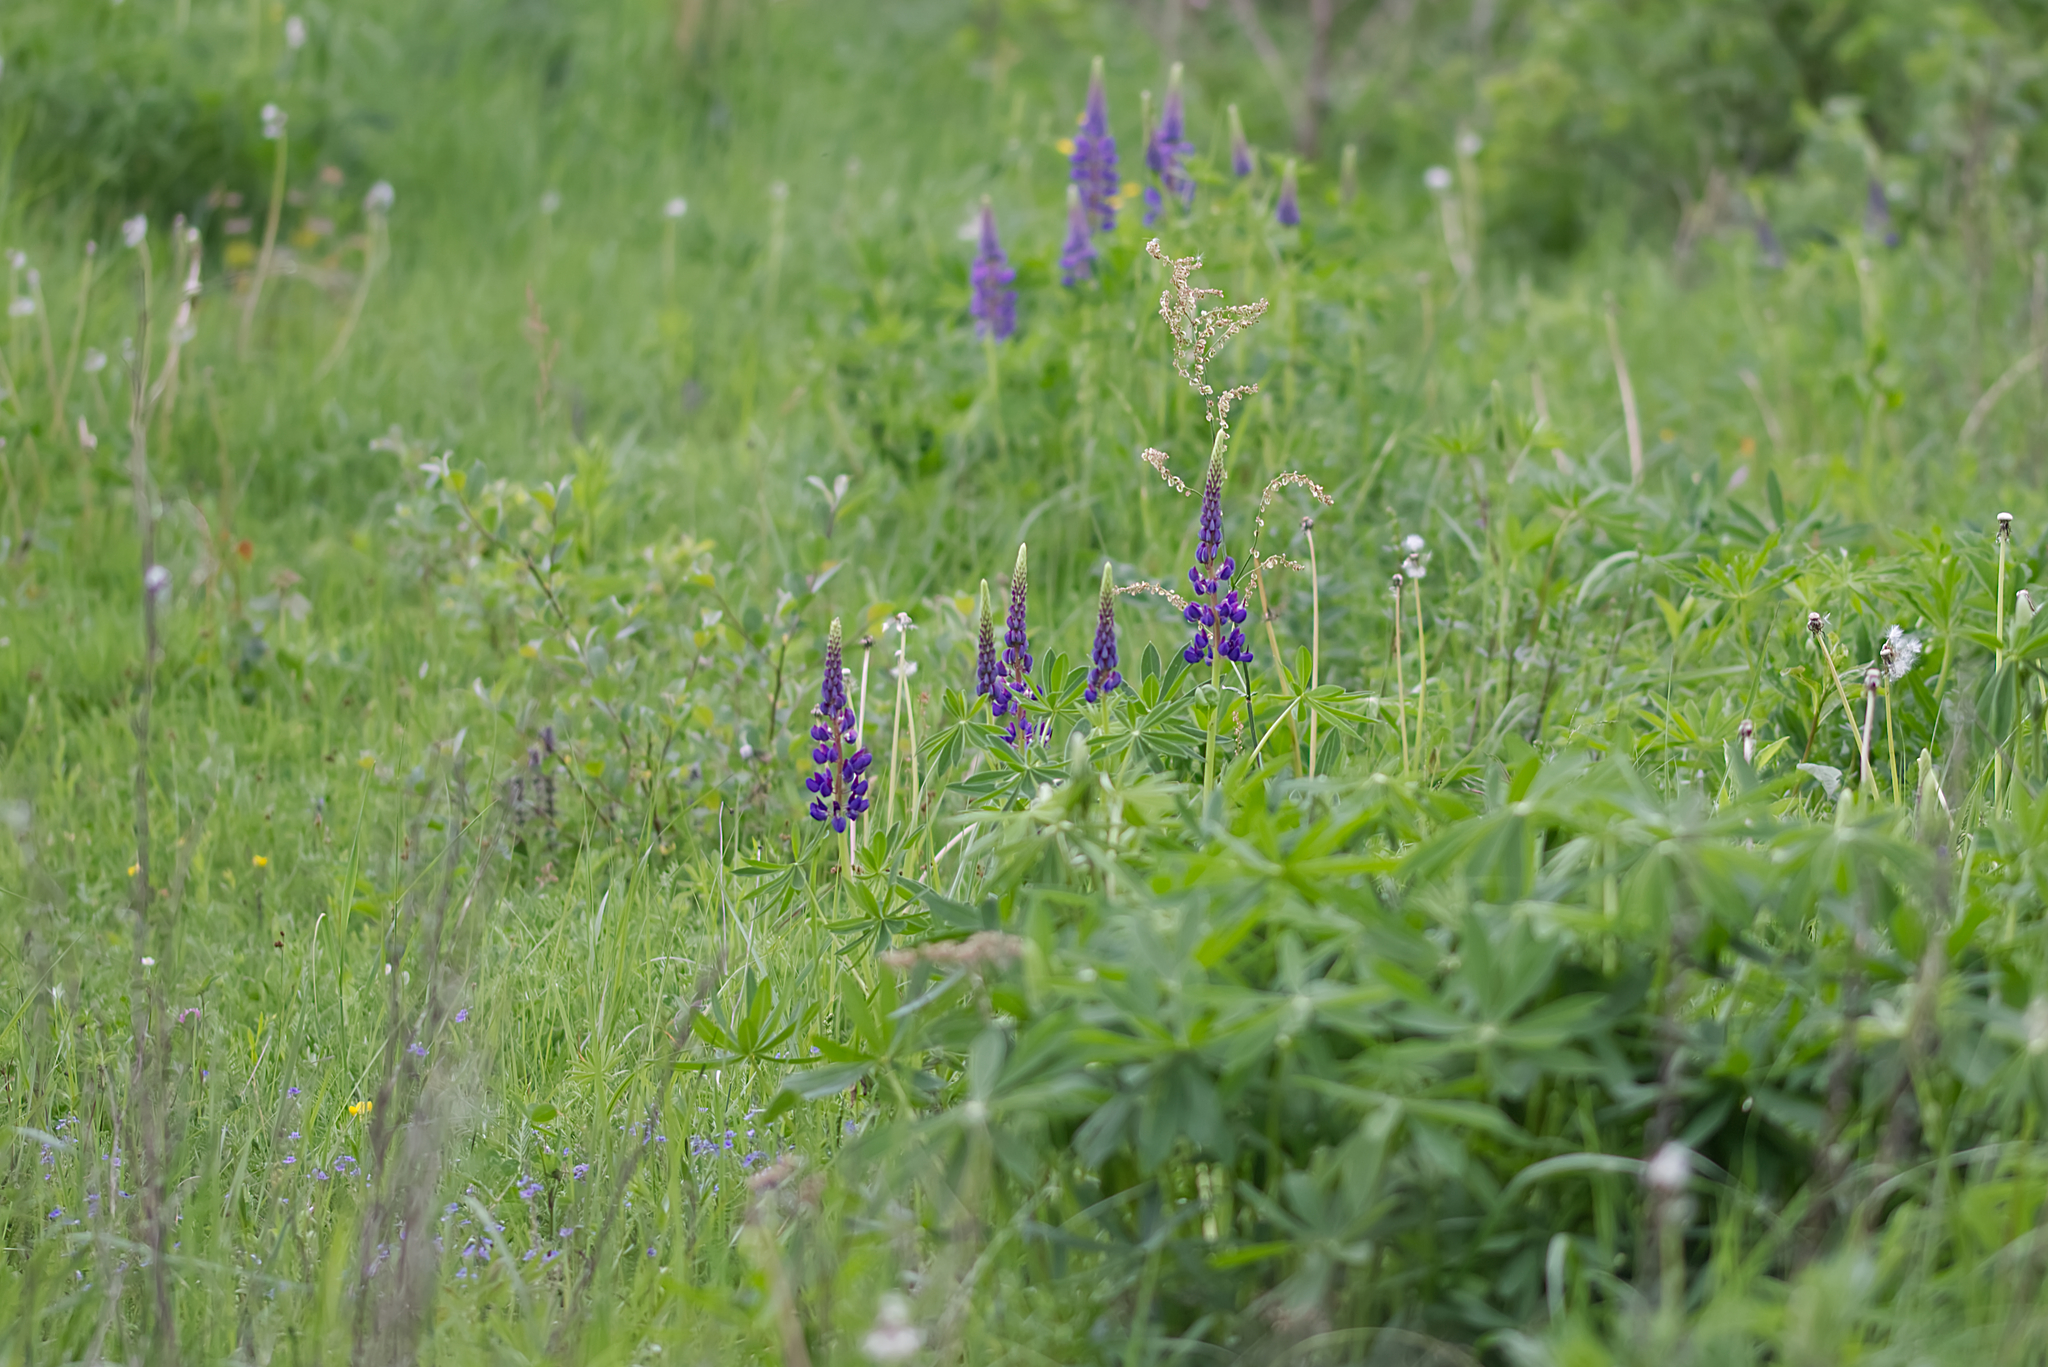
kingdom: Plantae
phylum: Tracheophyta
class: Magnoliopsida
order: Fabales
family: Fabaceae
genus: Lupinus
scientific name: Lupinus polyphyllus
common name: Garden lupin
